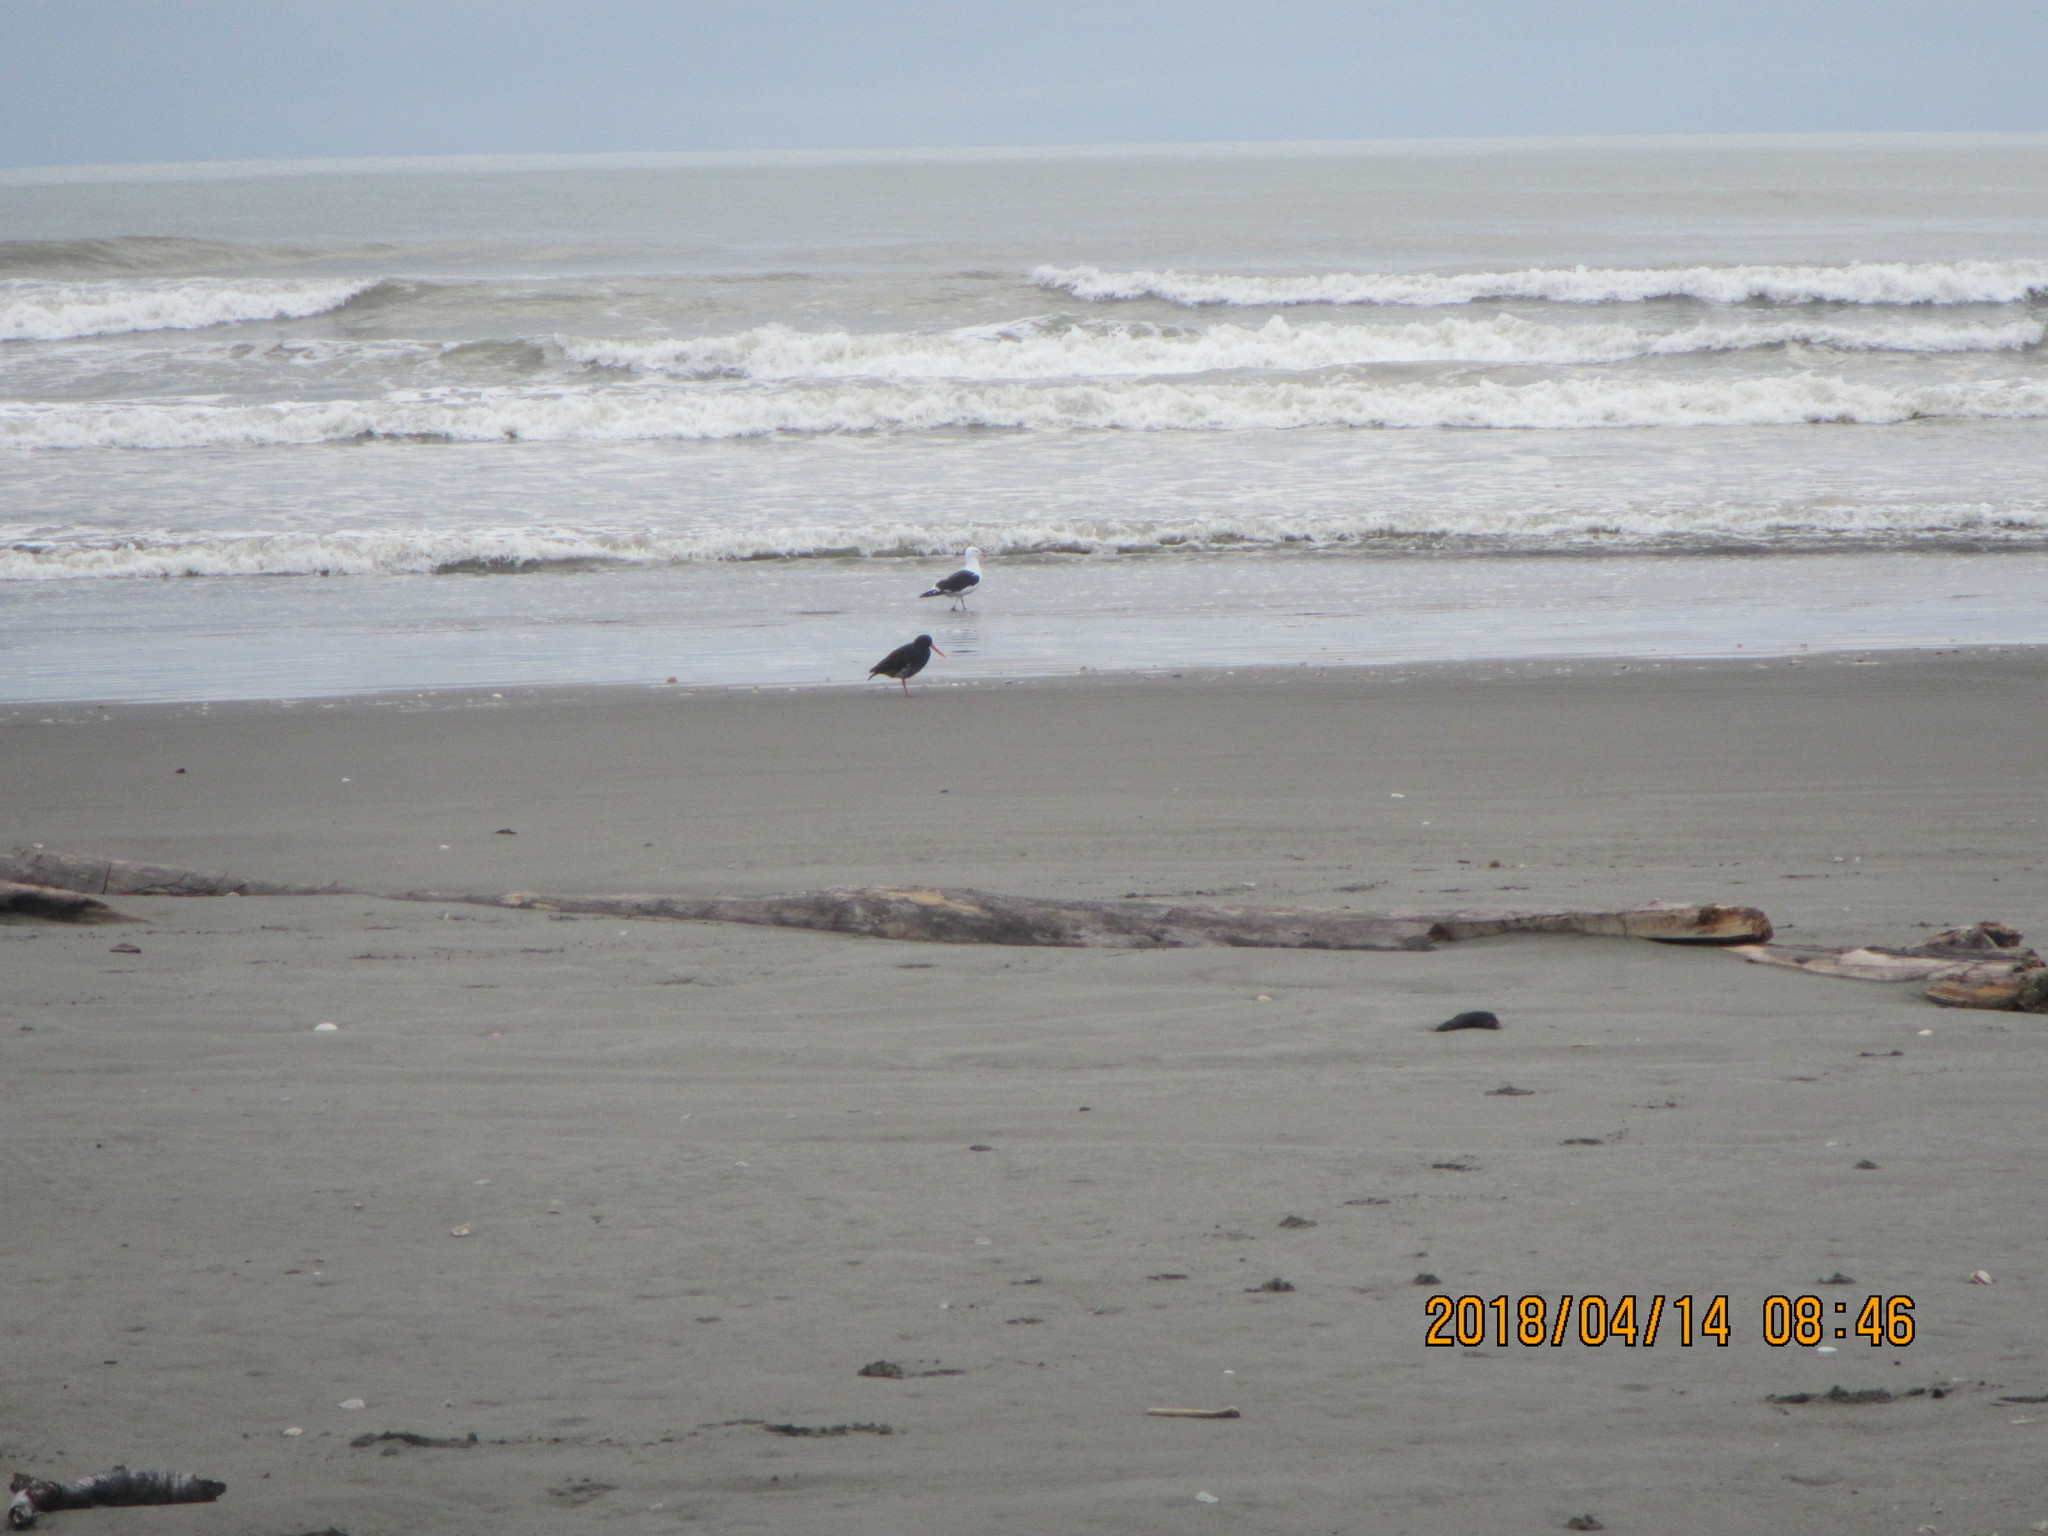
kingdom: Animalia
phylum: Chordata
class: Aves
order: Charadriiformes
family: Haematopodidae
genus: Haematopus
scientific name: Haematopus unicolor
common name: Variable oystercatcher
